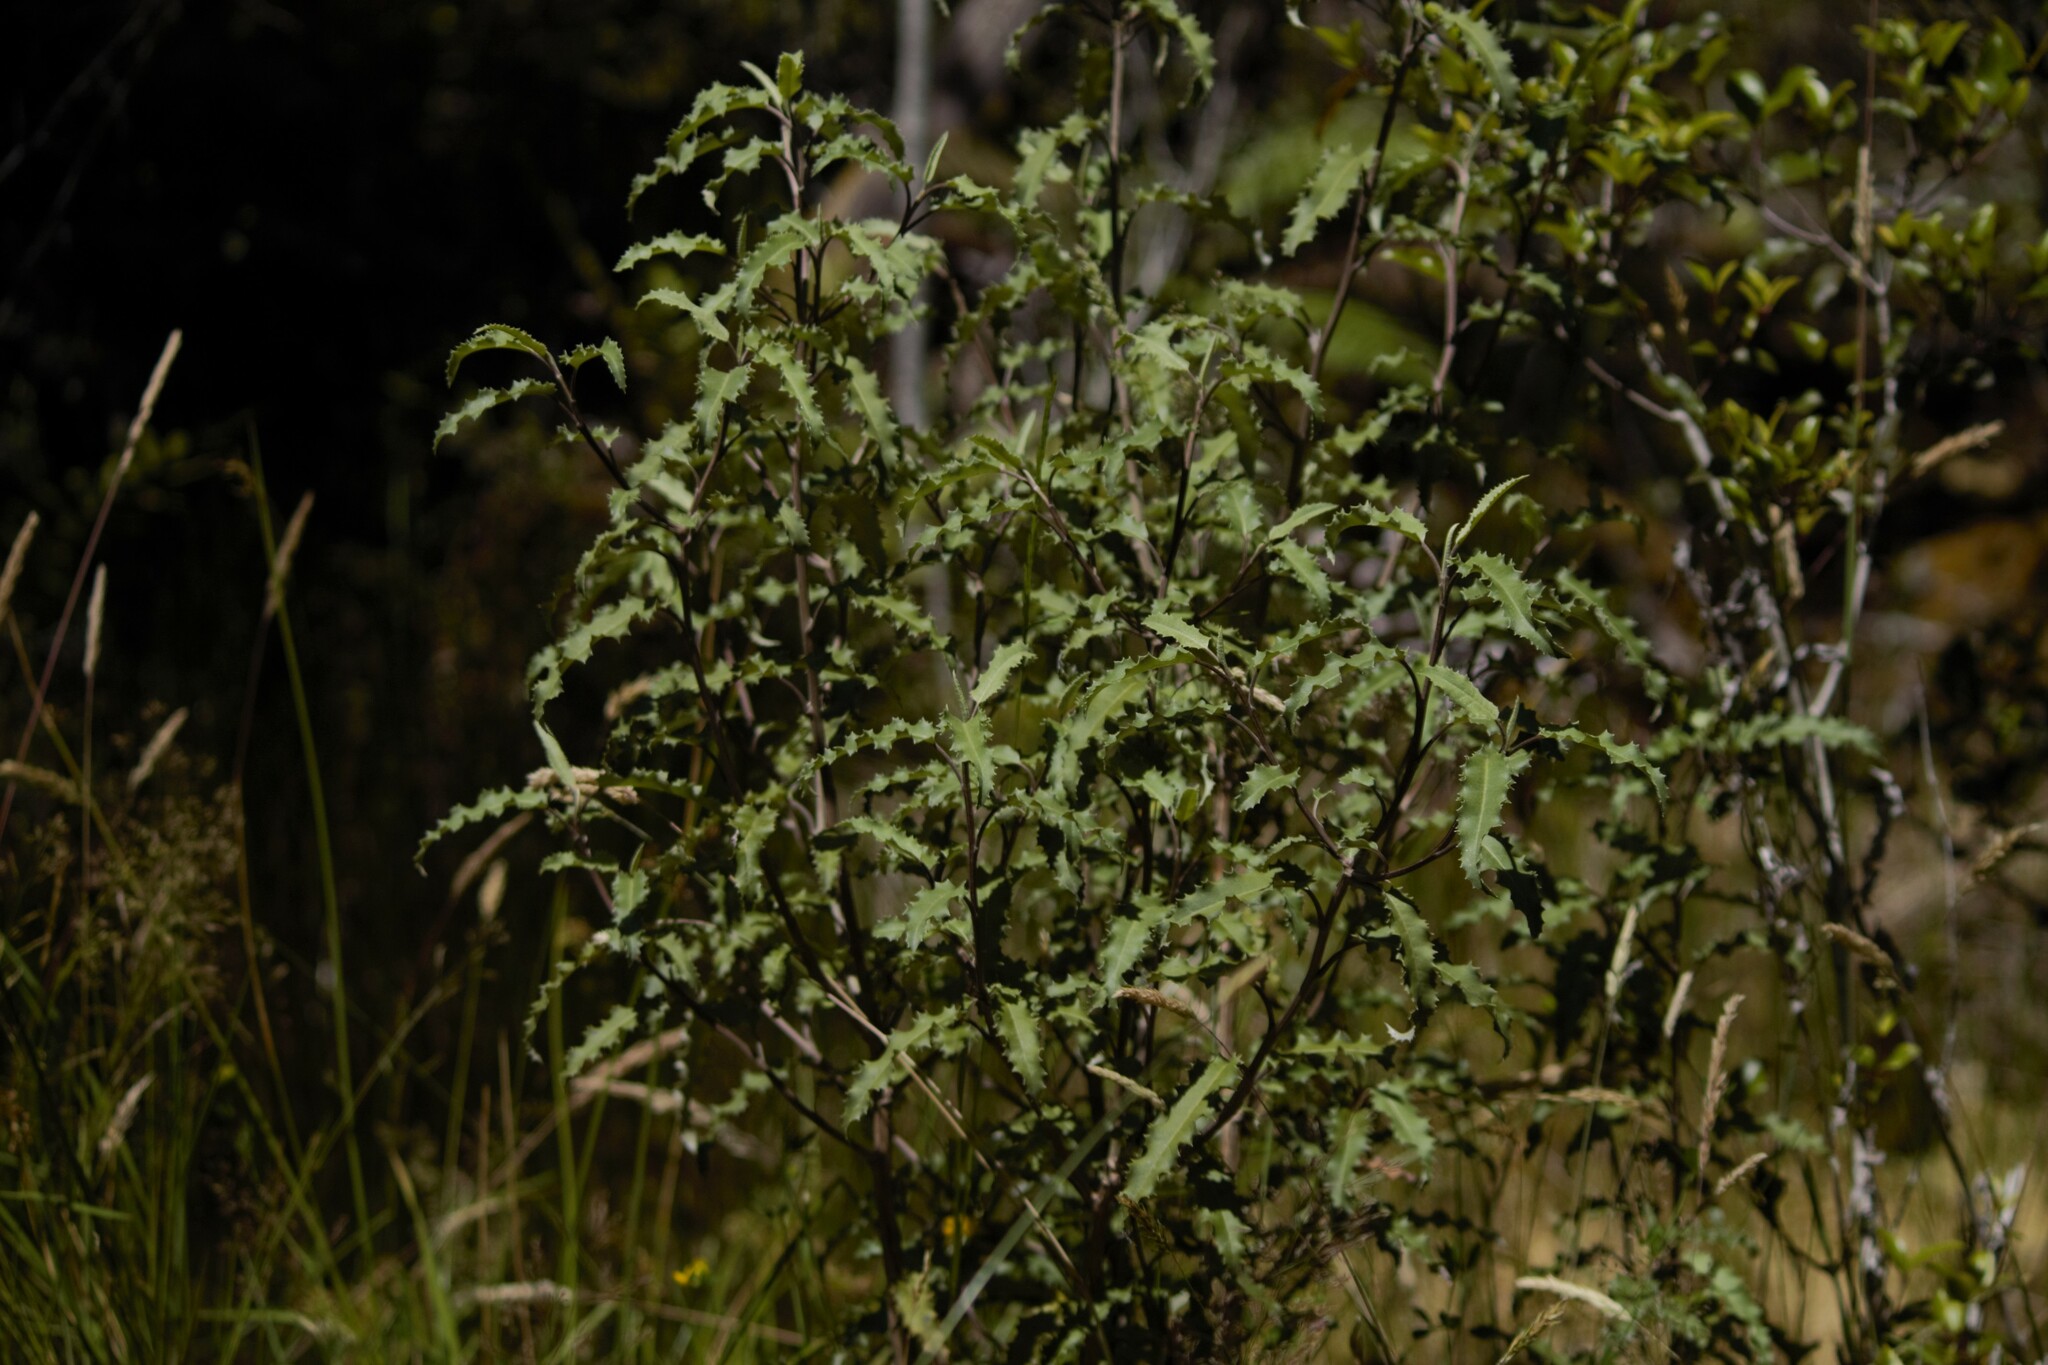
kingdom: Plantae
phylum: Tracheophyta
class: Magnoliopsida
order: Asterales
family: Asteraceae
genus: Olearia
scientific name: Olearia ilicifolia
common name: Maori-holly
